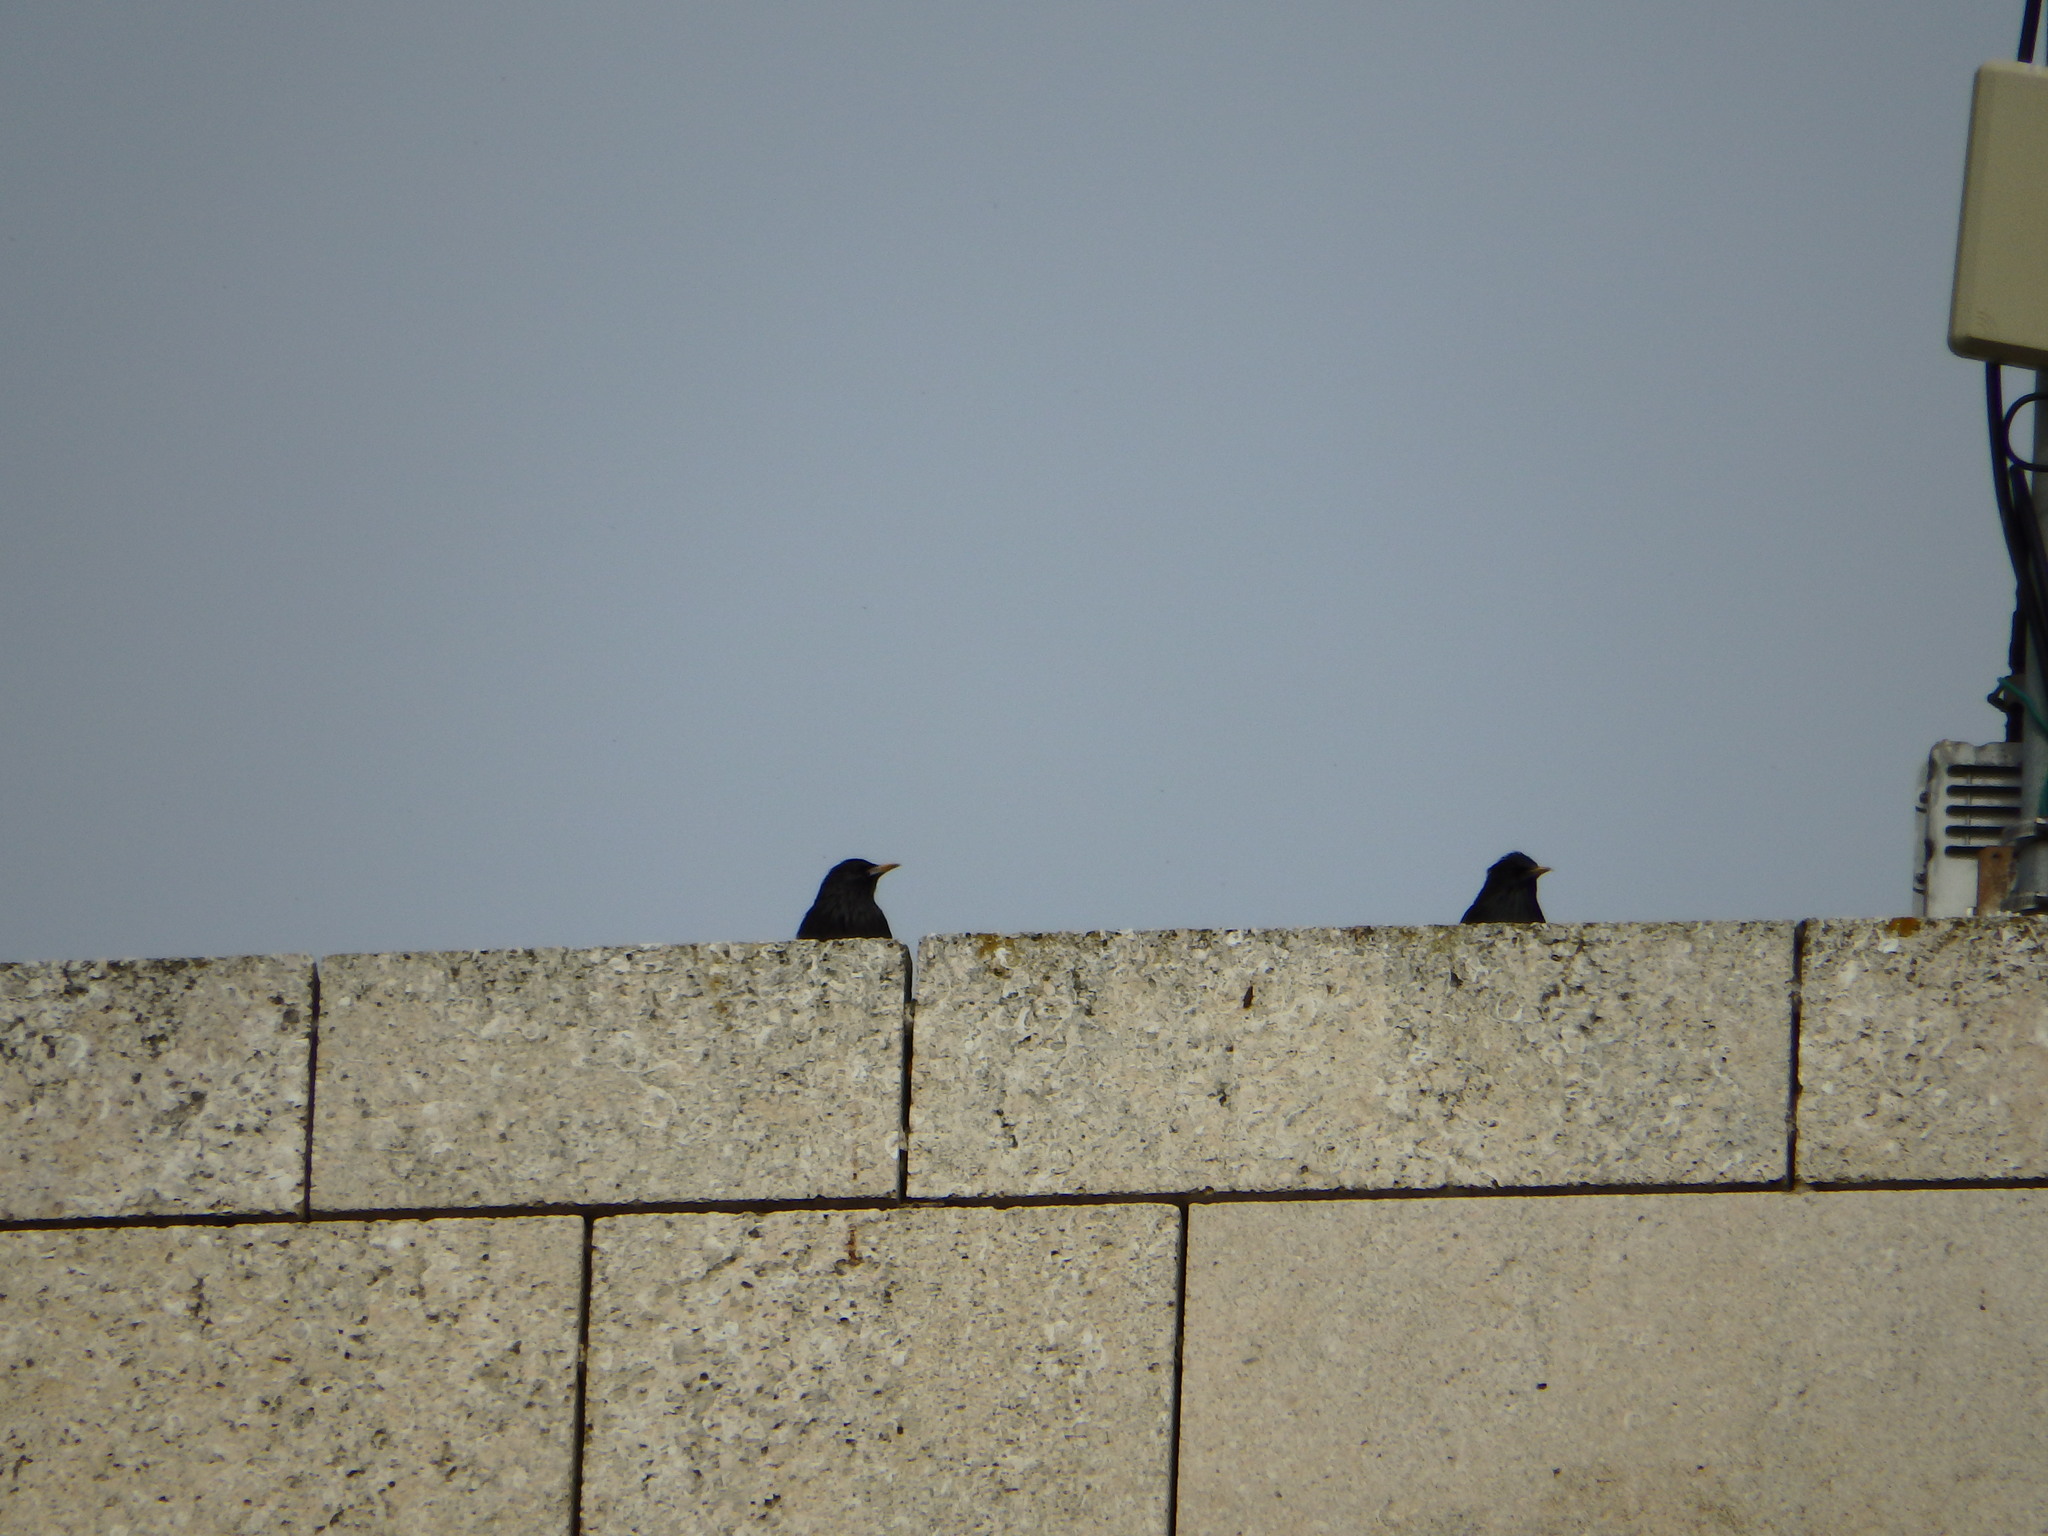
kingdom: Animalia
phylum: Chordata
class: Aves
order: Passeriformes
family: Sturnidae
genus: Sturnus
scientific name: Sturnus unicolor
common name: Spotless starling
